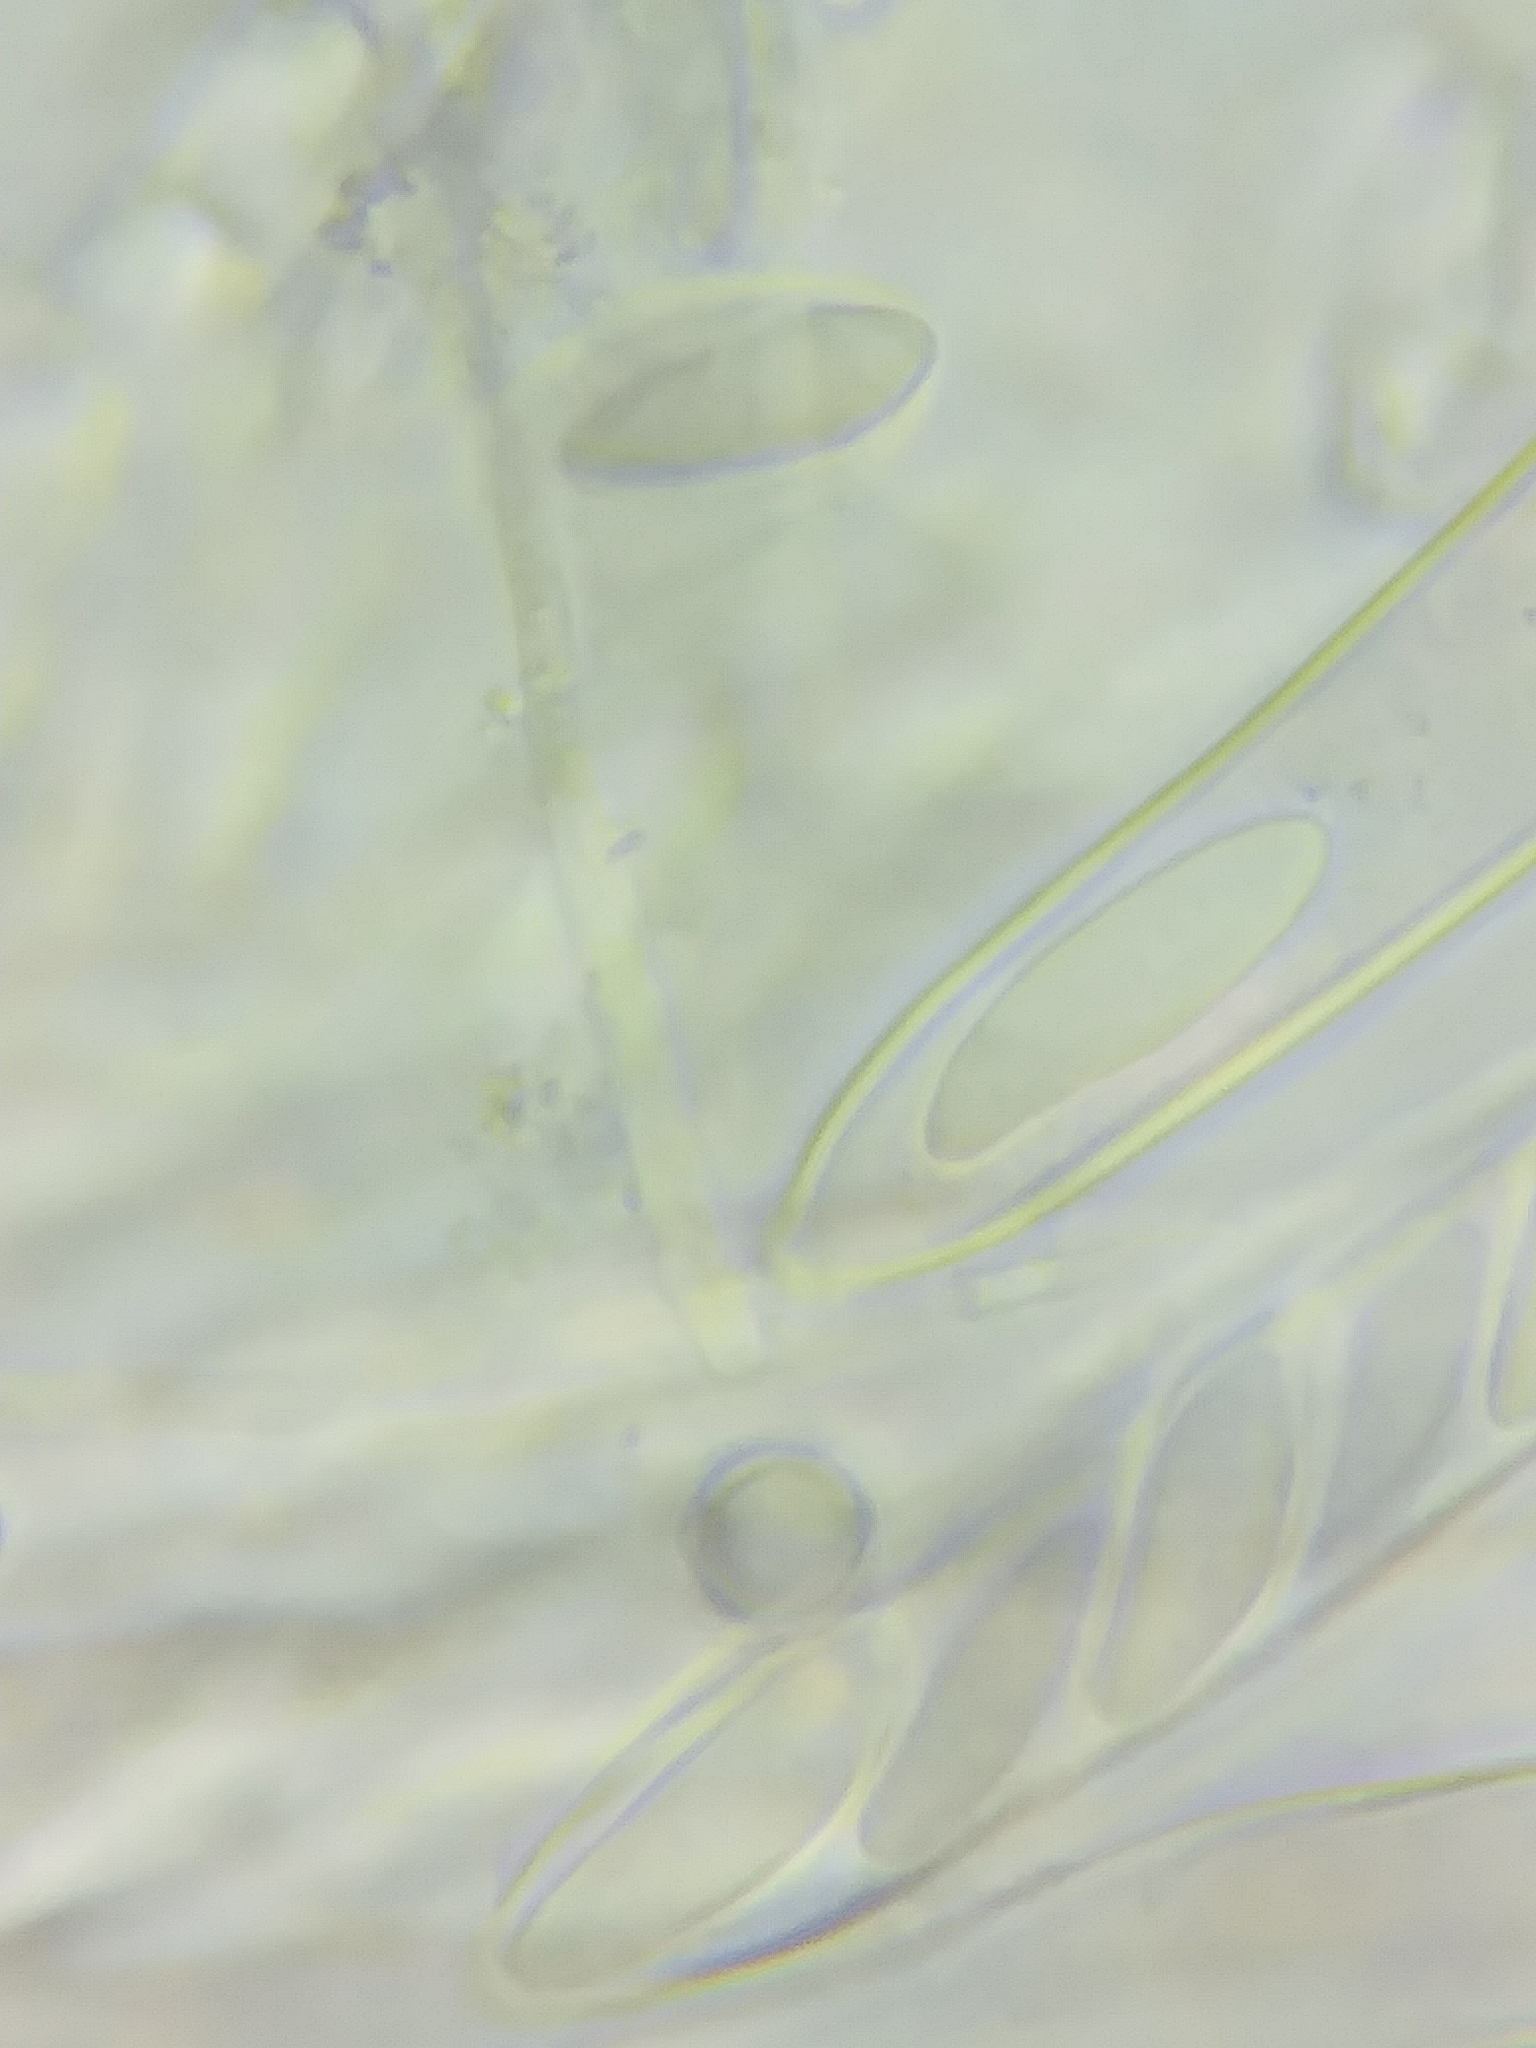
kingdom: Fungi
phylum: Ascomycota
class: Leotiomycetes
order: Helotiales
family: Tricladiaceae
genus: Cudoniella
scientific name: Cudoniella acicularis
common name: Oak pin
